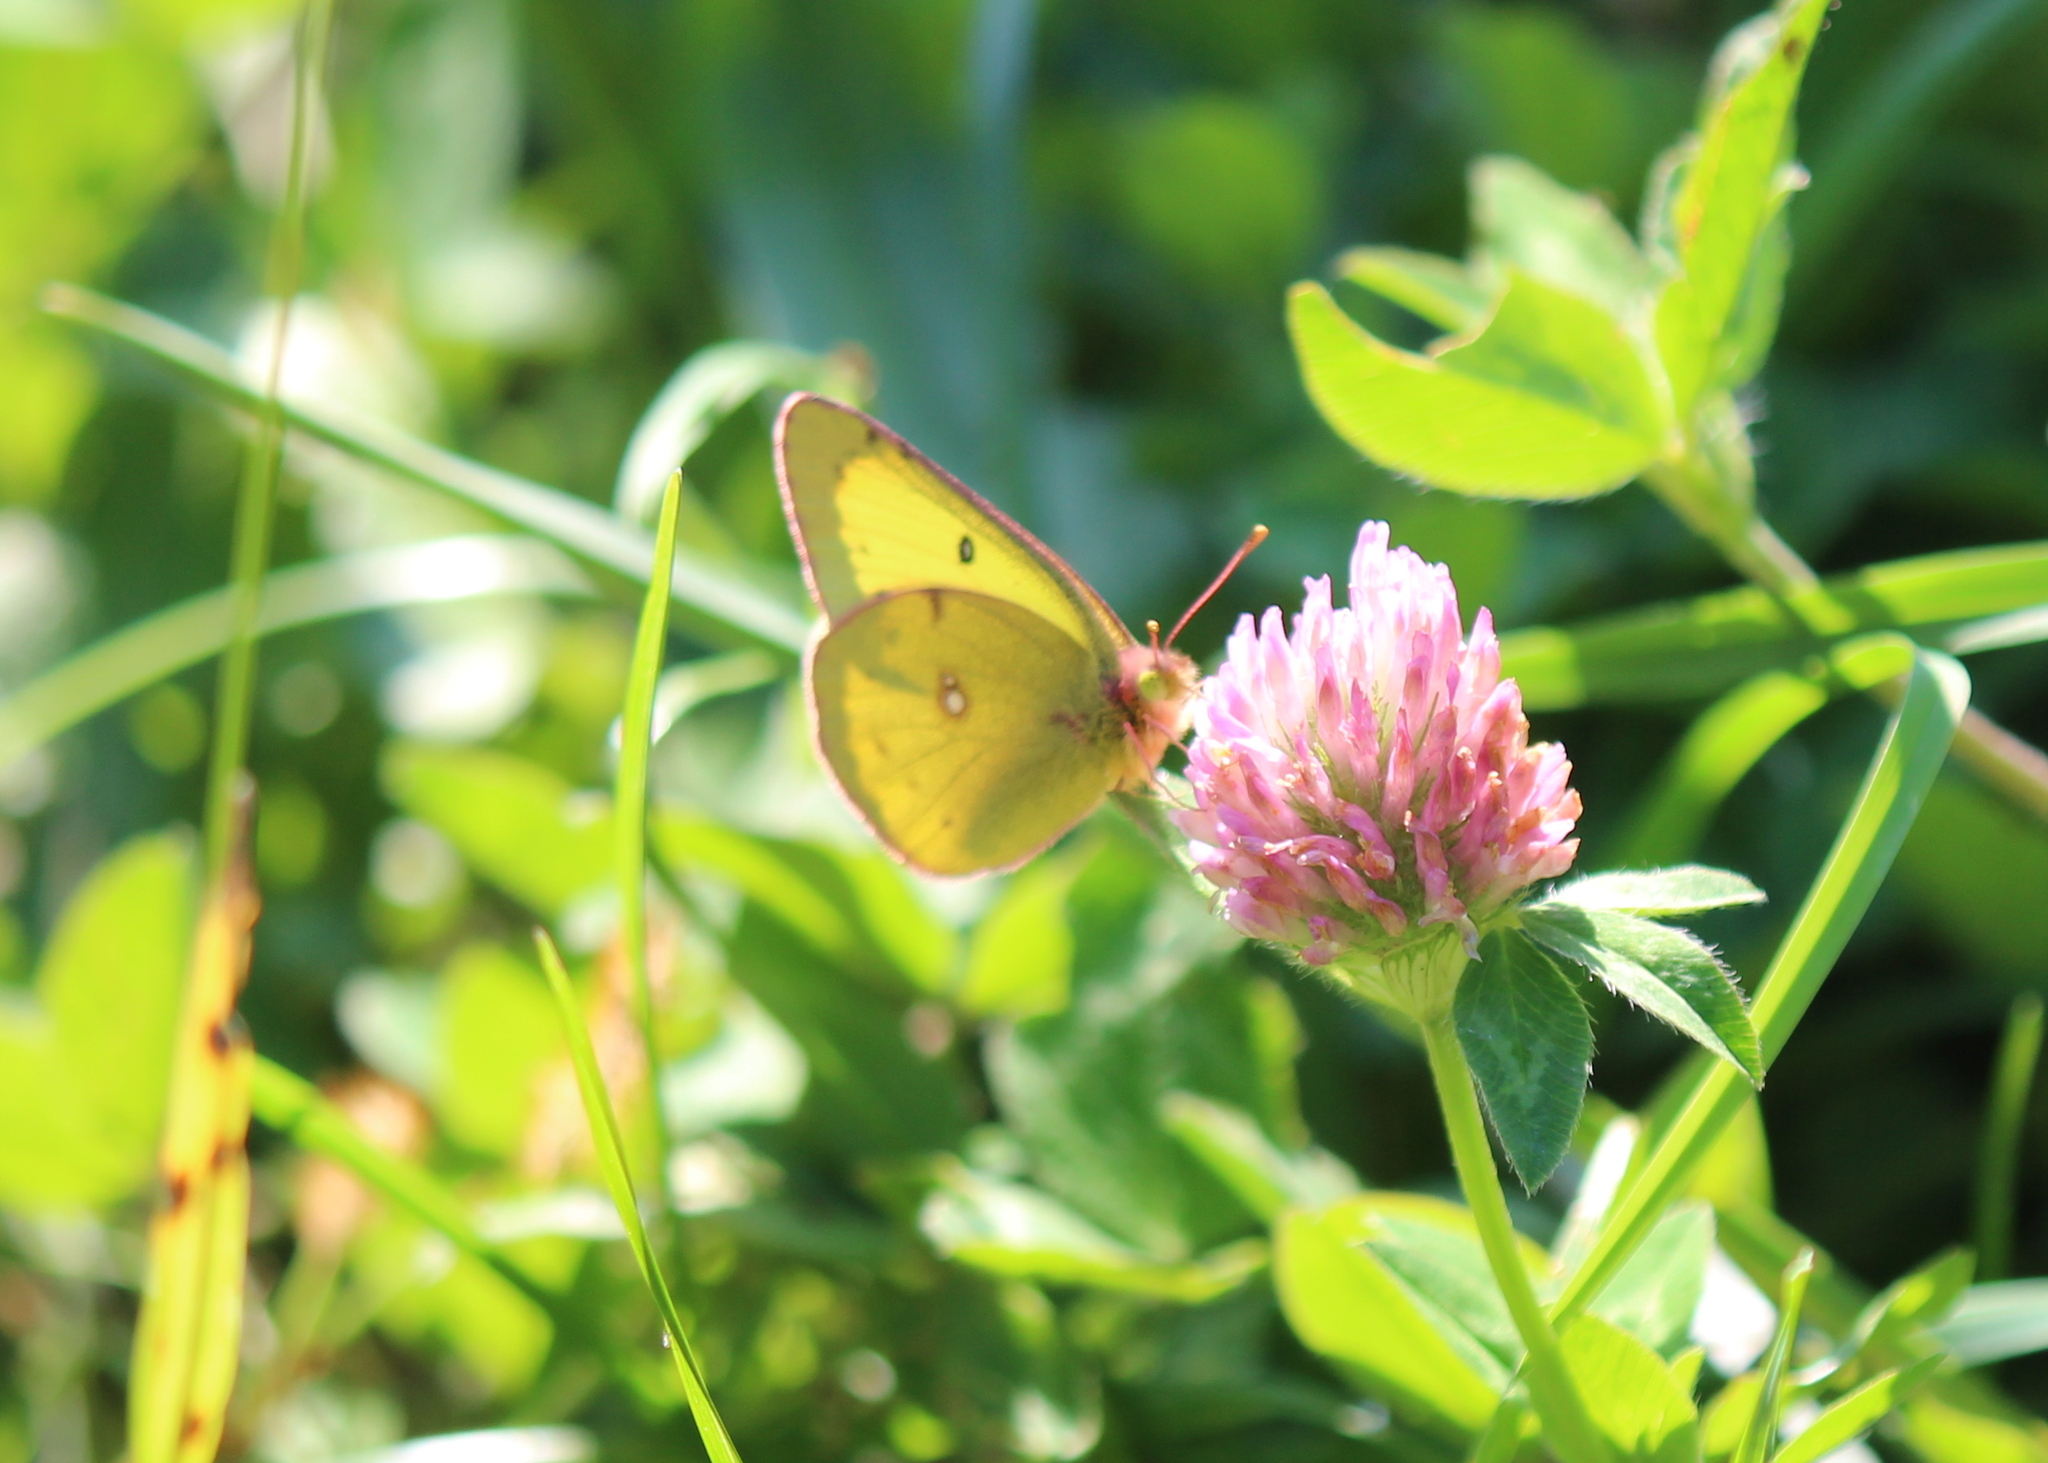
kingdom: Animalia
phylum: Arthropoda
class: Insecta
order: Lepidoptera
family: Pieridae
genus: Colias
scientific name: Colias philodice
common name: Clouded sulphur
